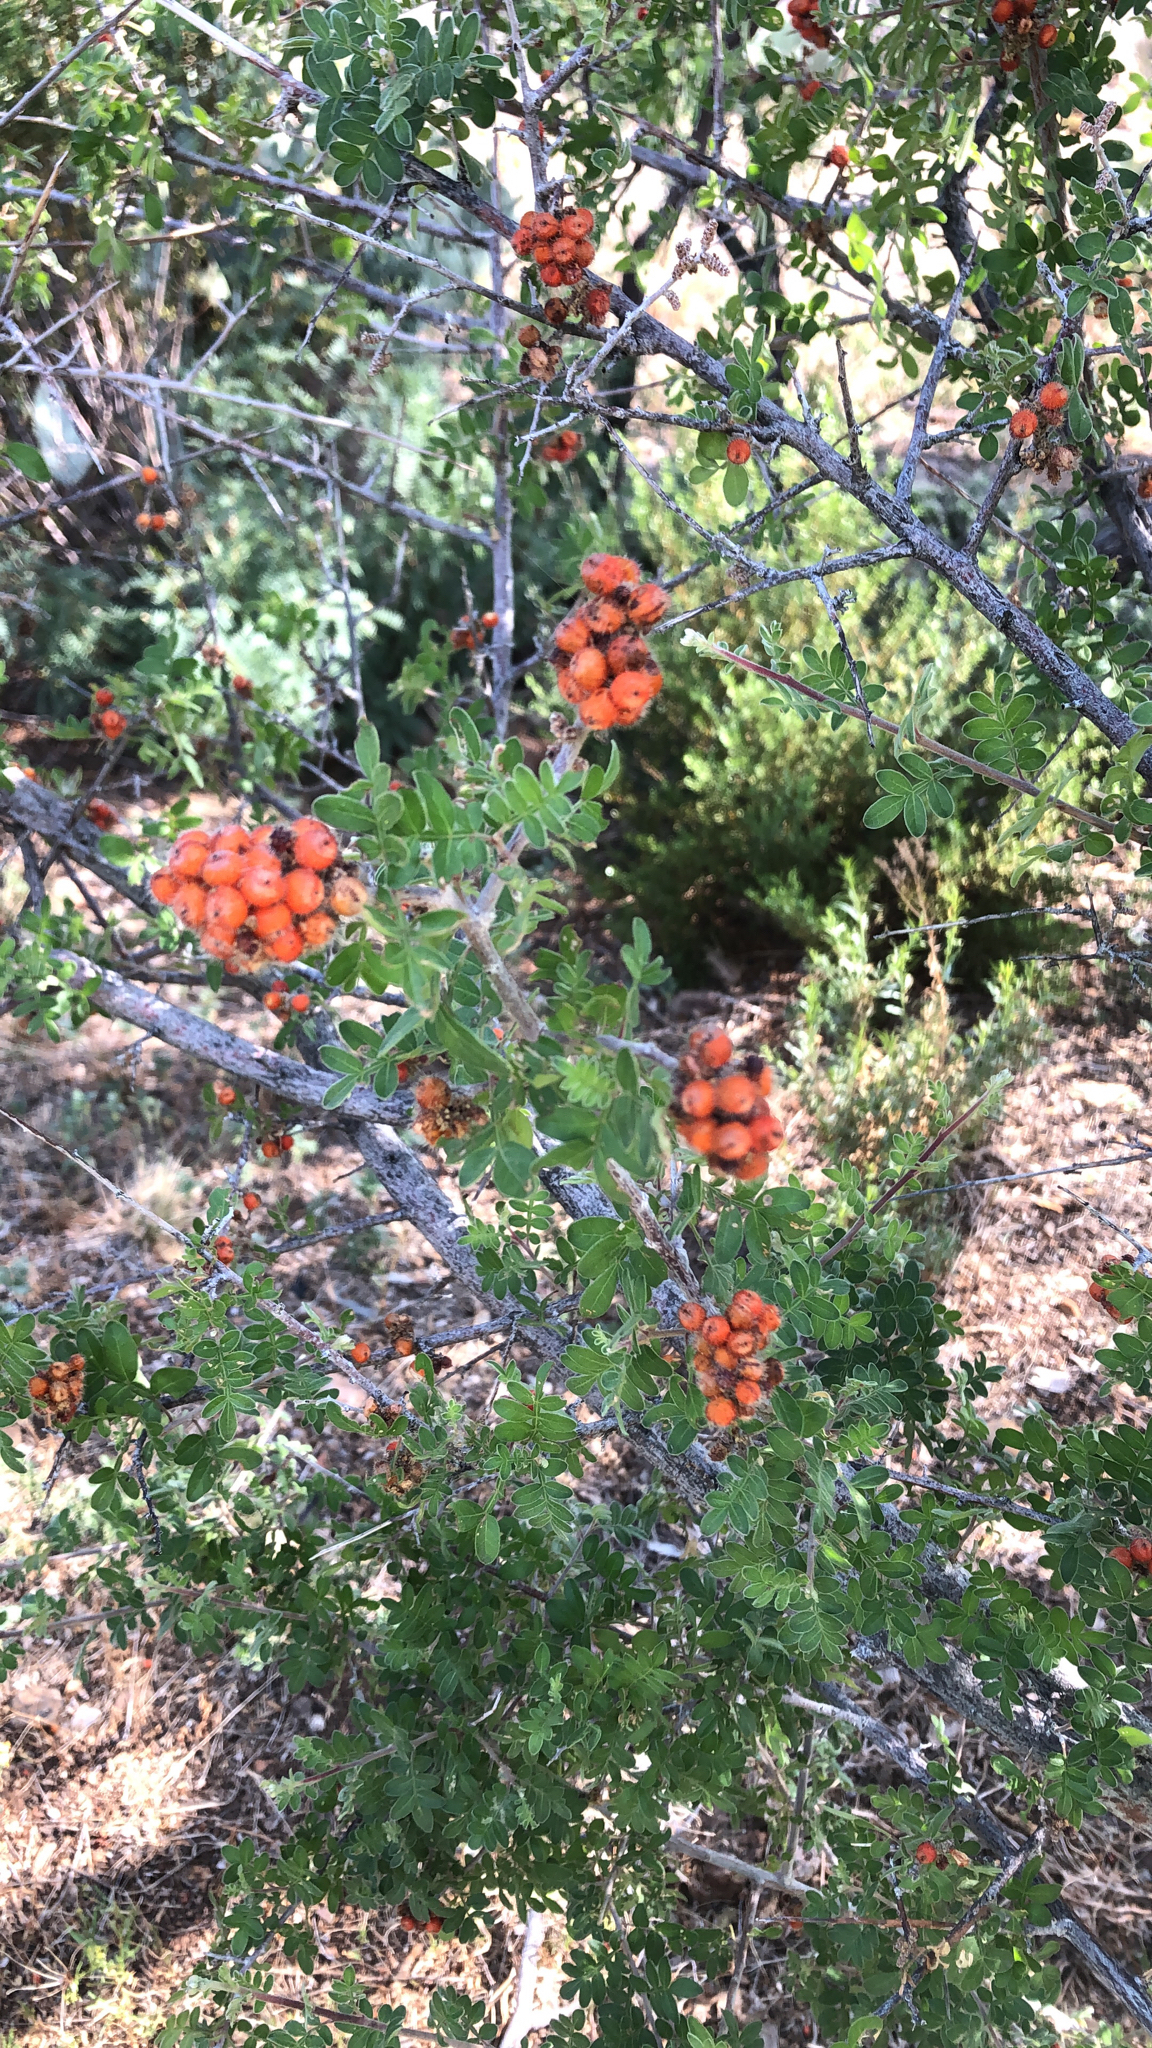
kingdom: Plantae
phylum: Tracheophyta
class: Magnoliopsida
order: Sapindales
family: Anacardiaceae
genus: Rhus
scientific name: Rhus microphylla
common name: Desert sumac
